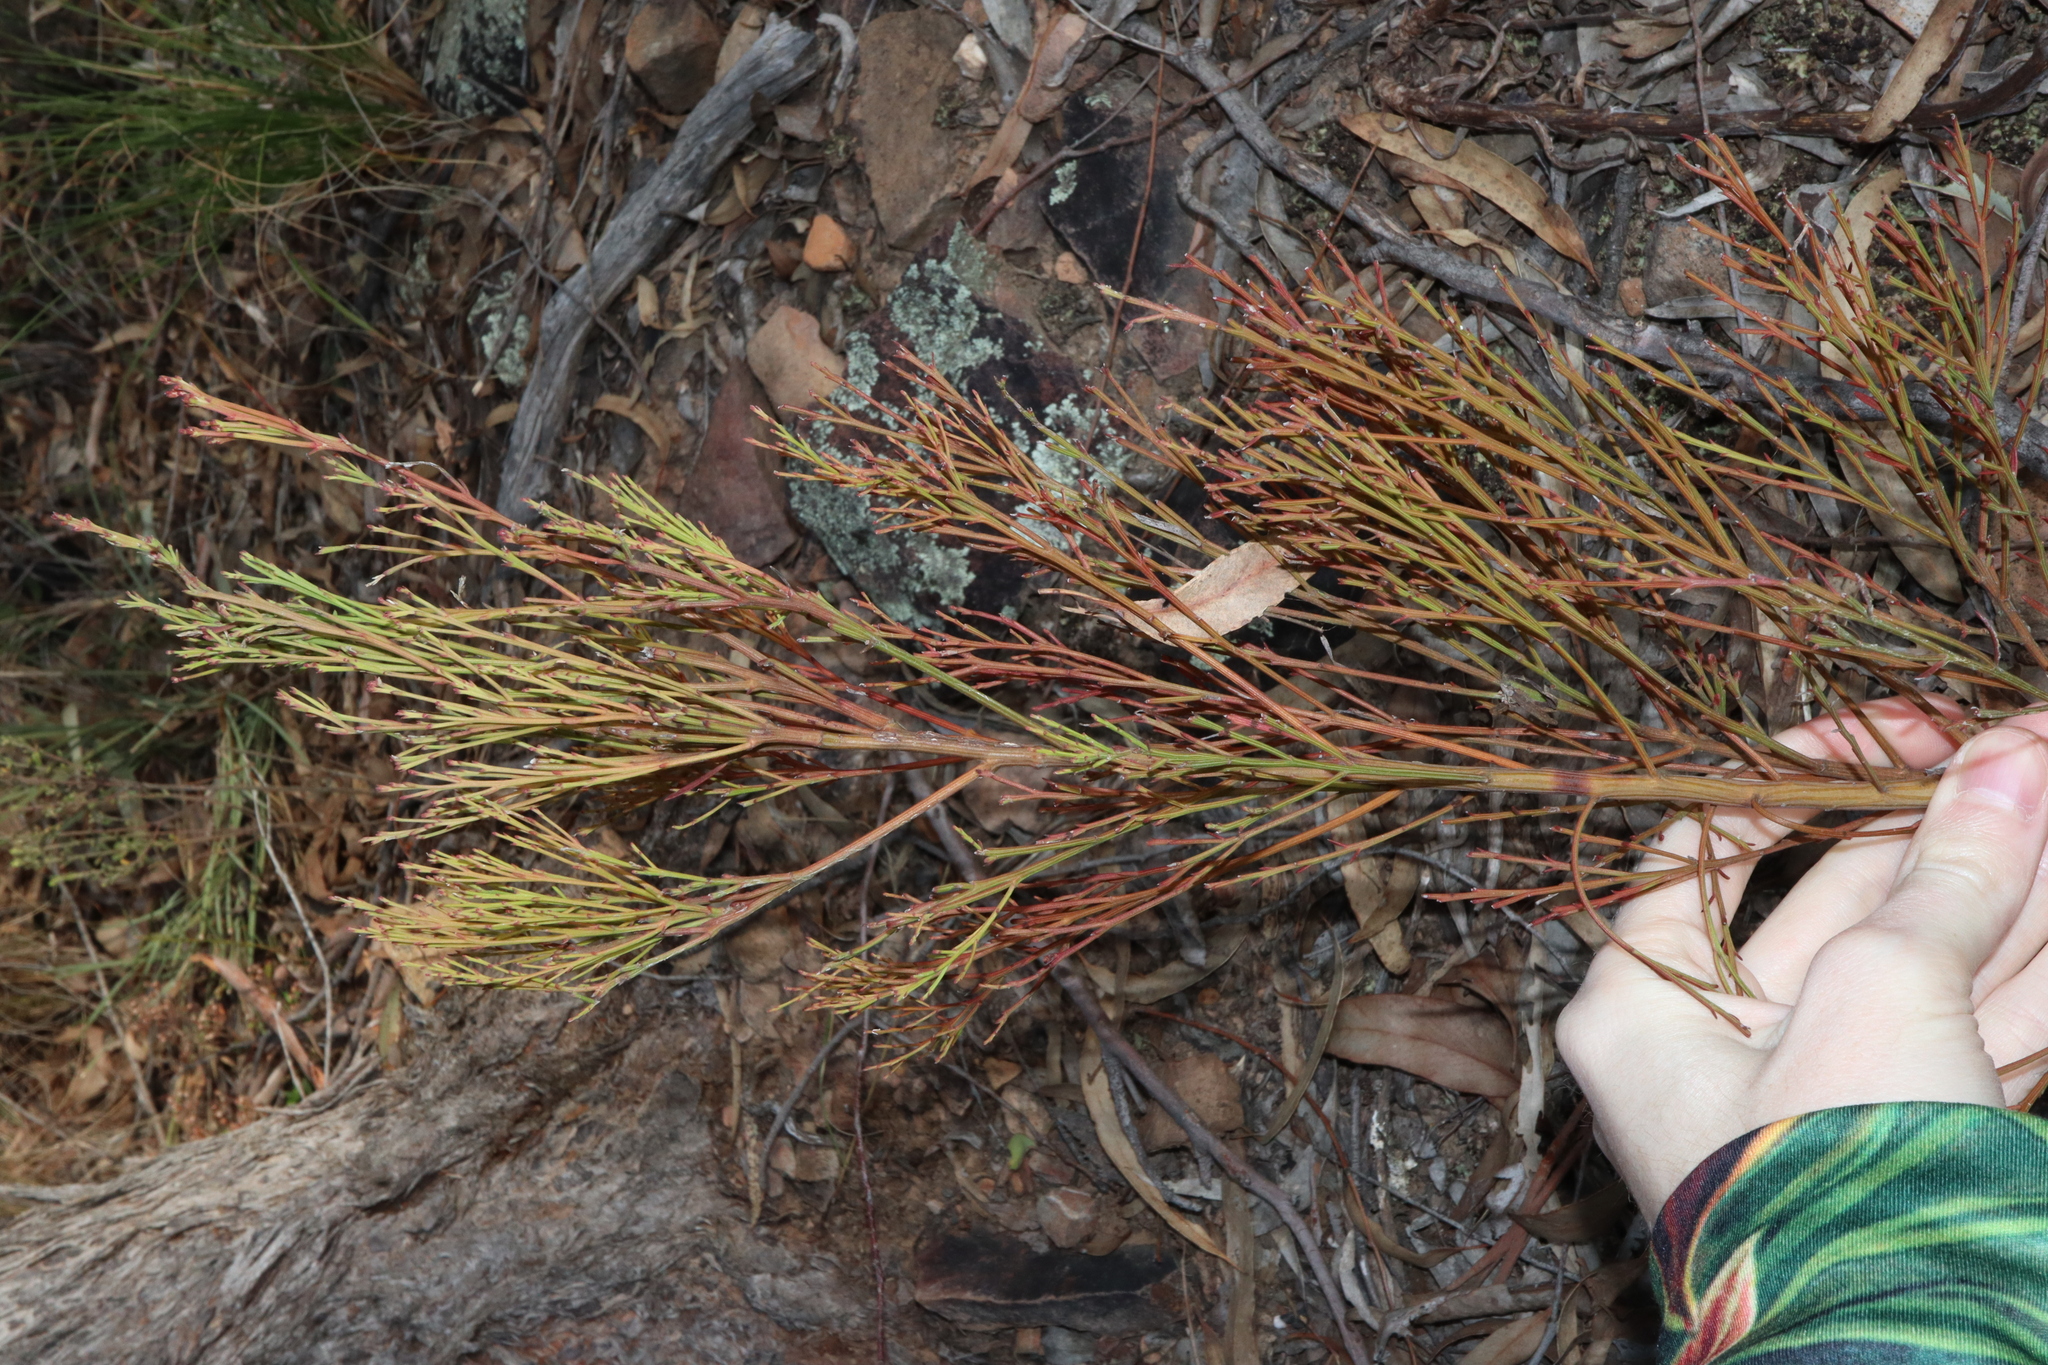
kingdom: Plantae
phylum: Tracheophyta
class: Magnoliopsida
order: Santalales
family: Santalaceae
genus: Exocarpos
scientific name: Exocarpos cupressiformis
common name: Cherry ballart
